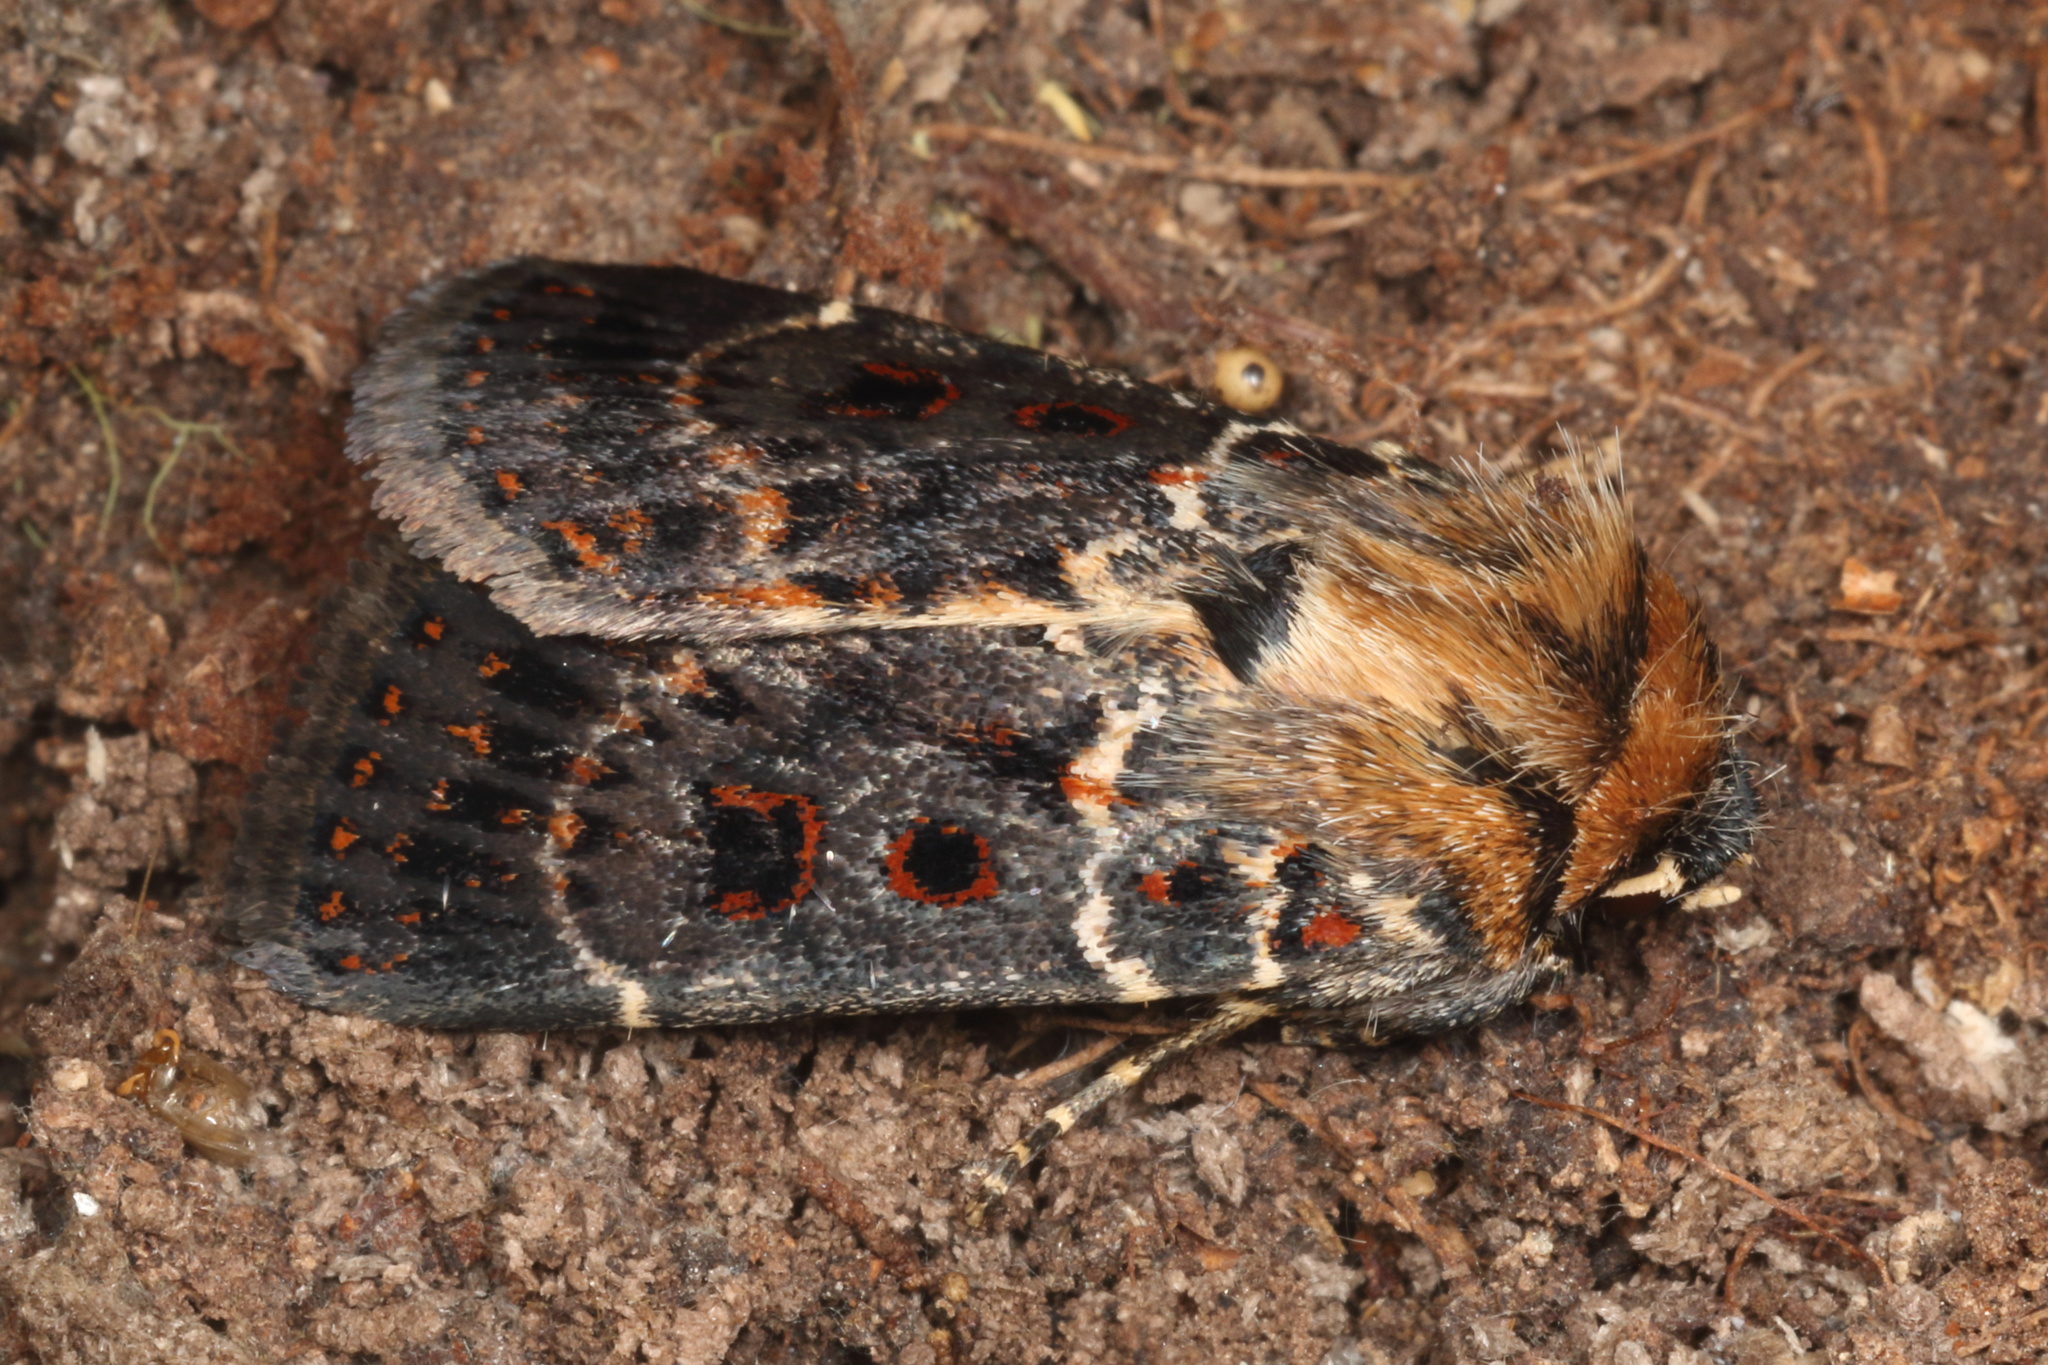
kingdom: Animalia
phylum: Arthropoda
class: Insecta
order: Lepidoptera
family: Noctuidae
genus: Proteuxoa
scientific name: Proteuxoa sanguinipuncta
